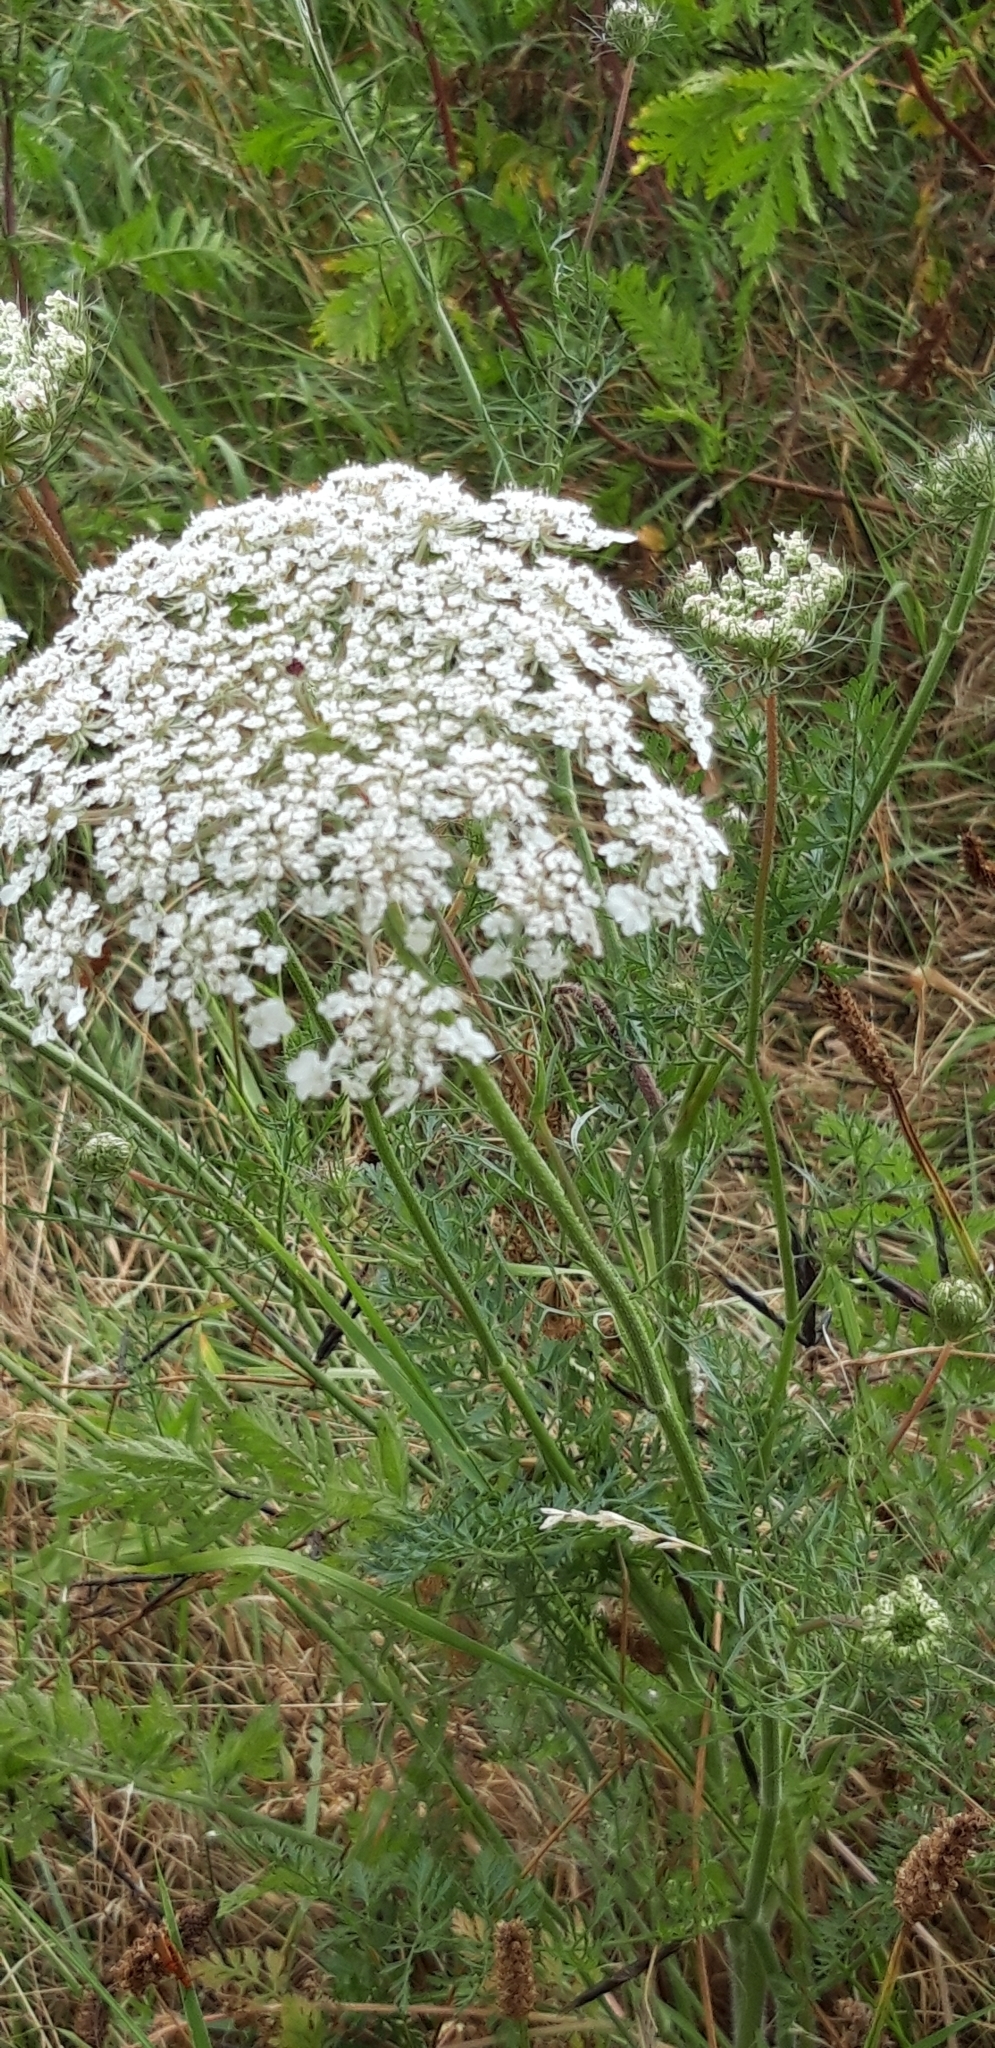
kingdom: Plantae
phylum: Tracheophyta
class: Magnoliopsida
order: Apiales
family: Apiaceae
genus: Daucus
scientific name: Daucus carota
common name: Wild carrot
